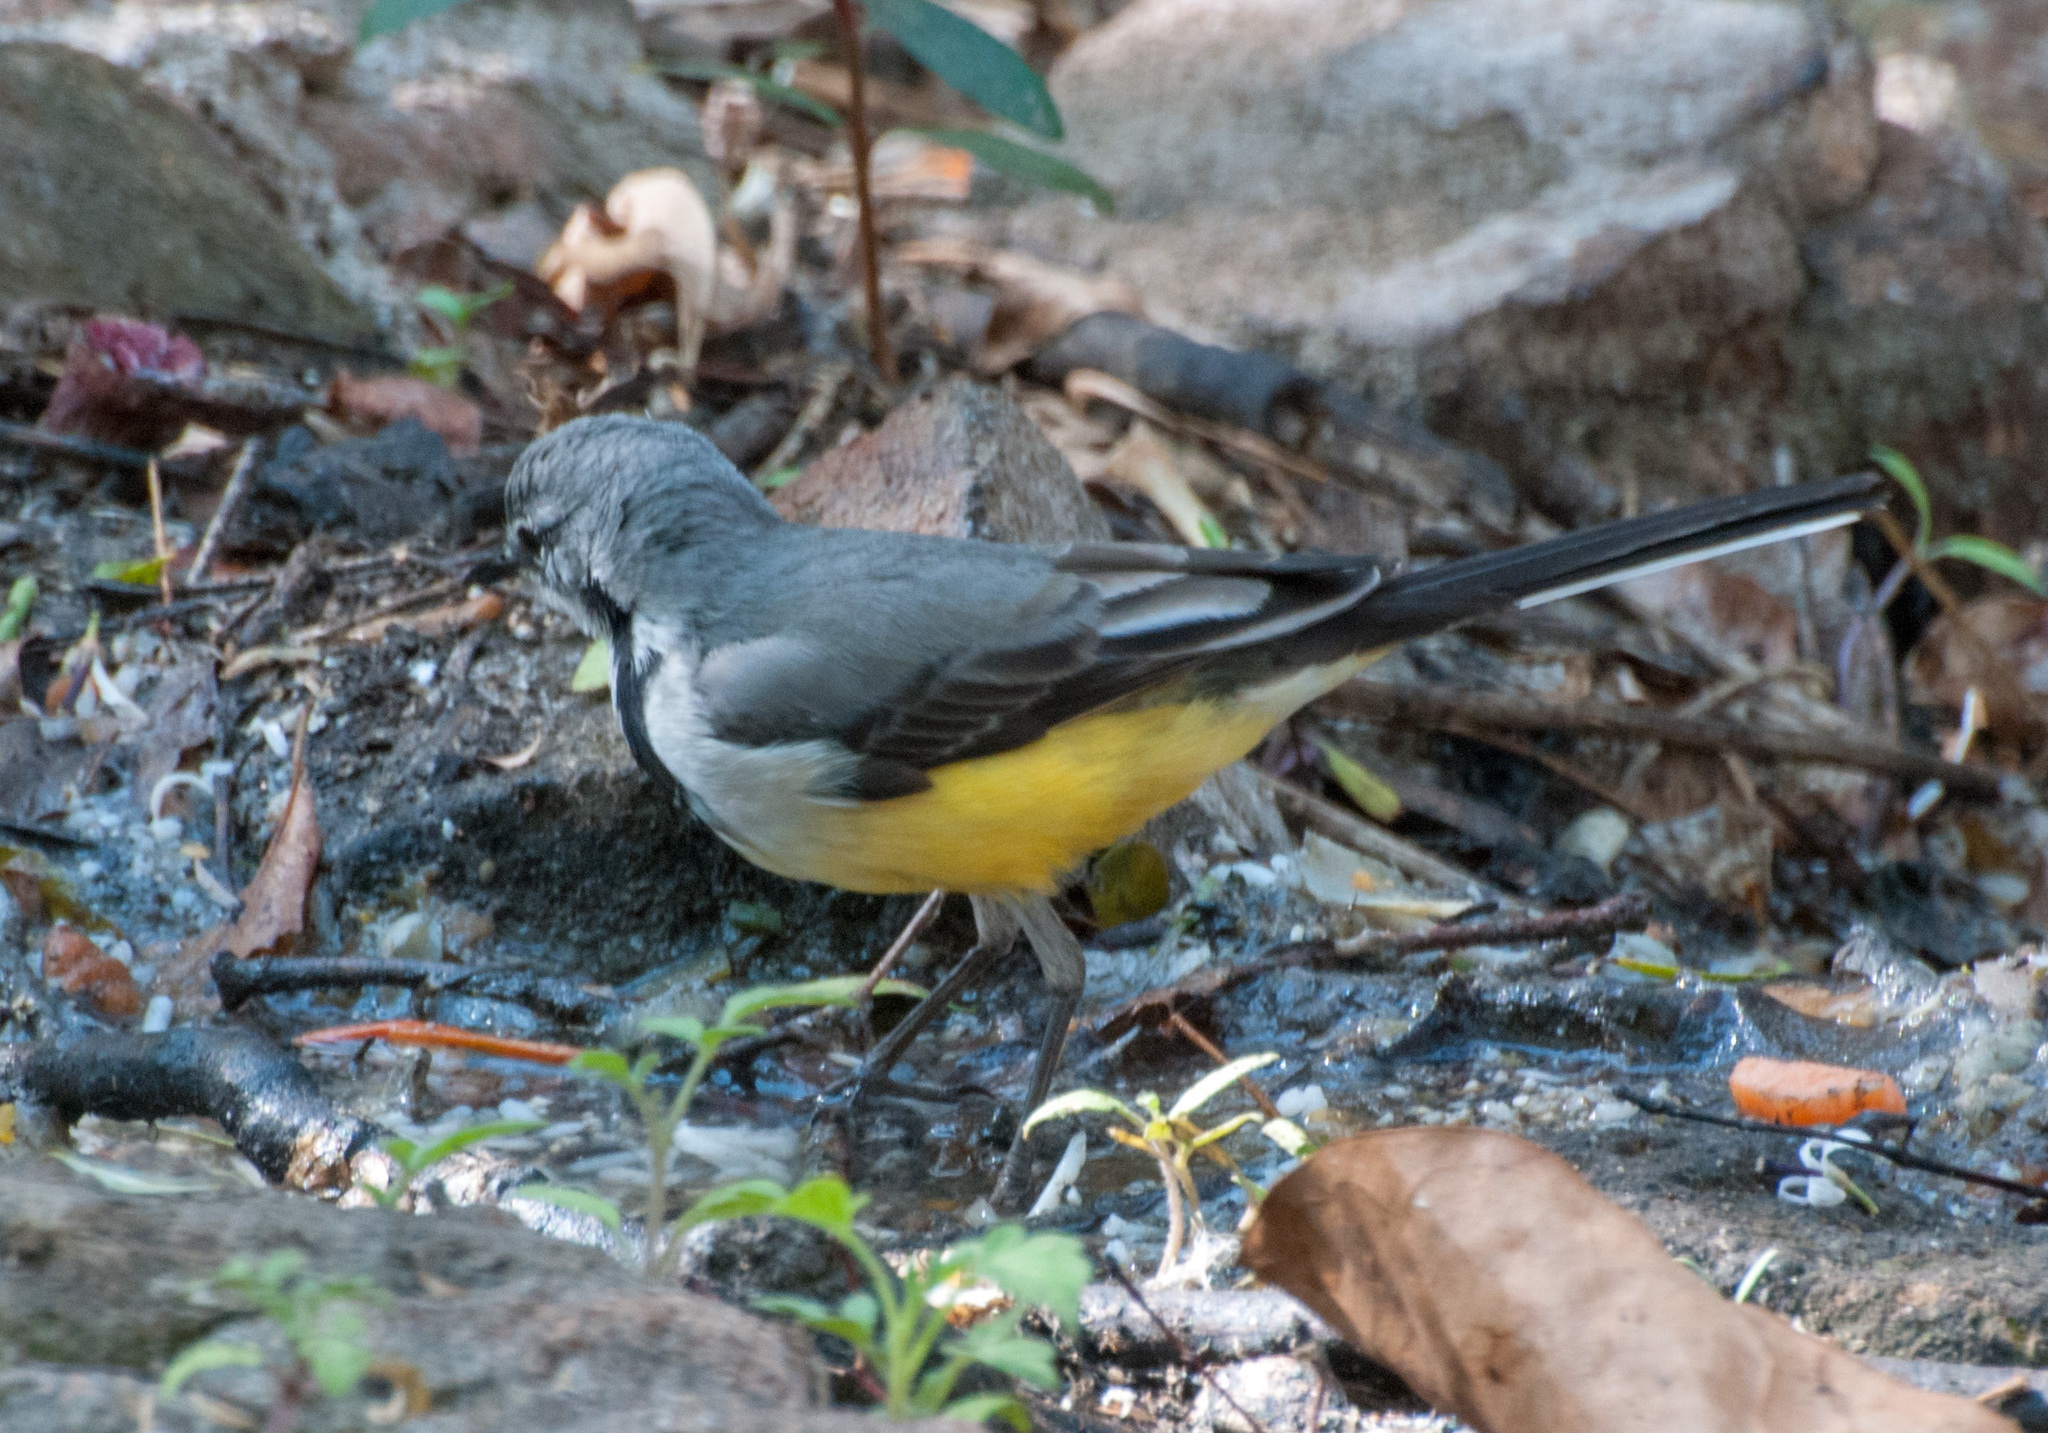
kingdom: Animalia
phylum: Chordata
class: Aves
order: Passeriformes
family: Motacillidae
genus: Motacilla
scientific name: Motacilla flaviventris
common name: Madagascar wagtail
